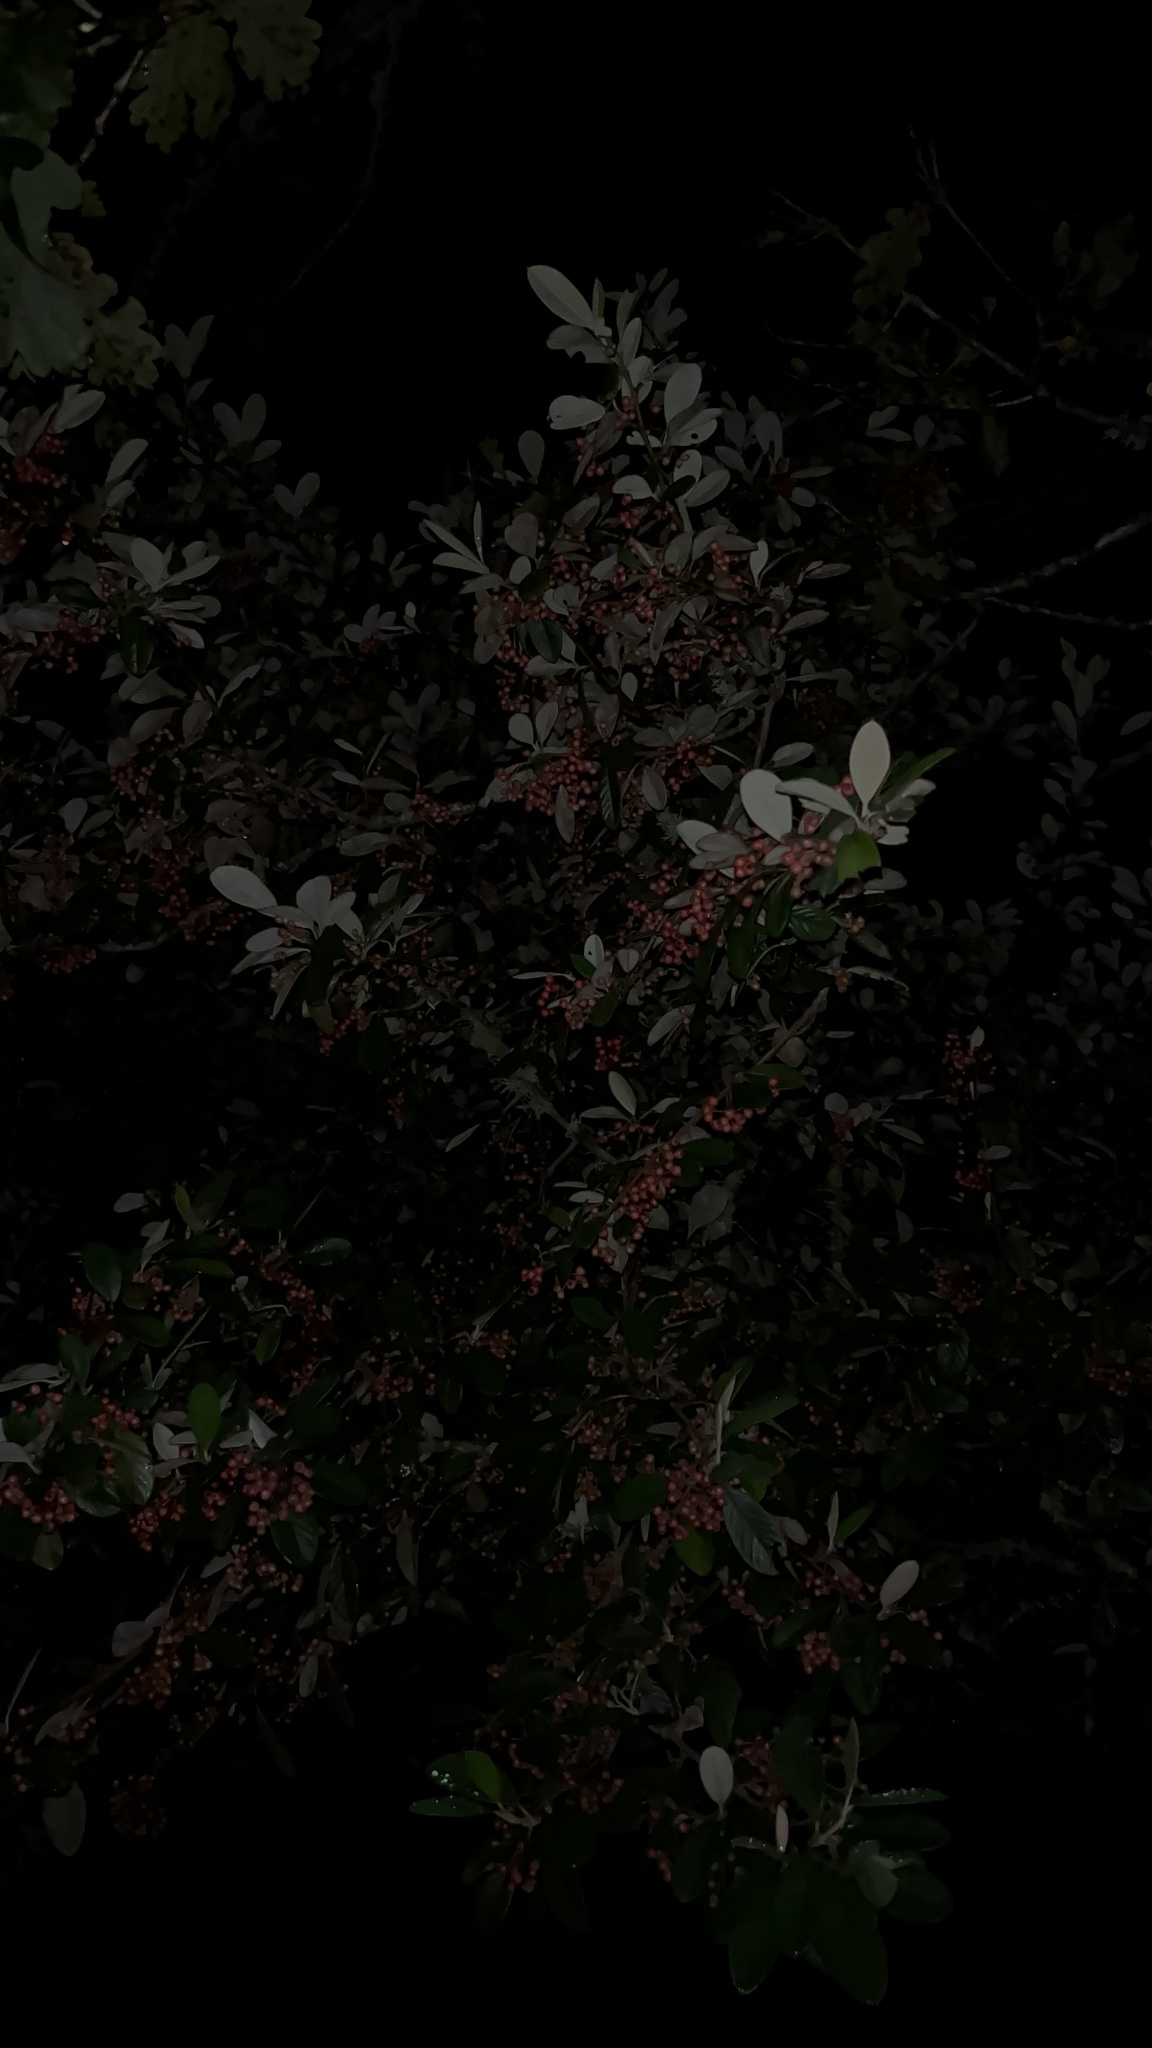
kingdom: Plantae
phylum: Tracheophyta
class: Magnoliopsida
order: Rosales
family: Rosaceae
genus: Cotoneaster
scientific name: Cotoneaster coriaceus
